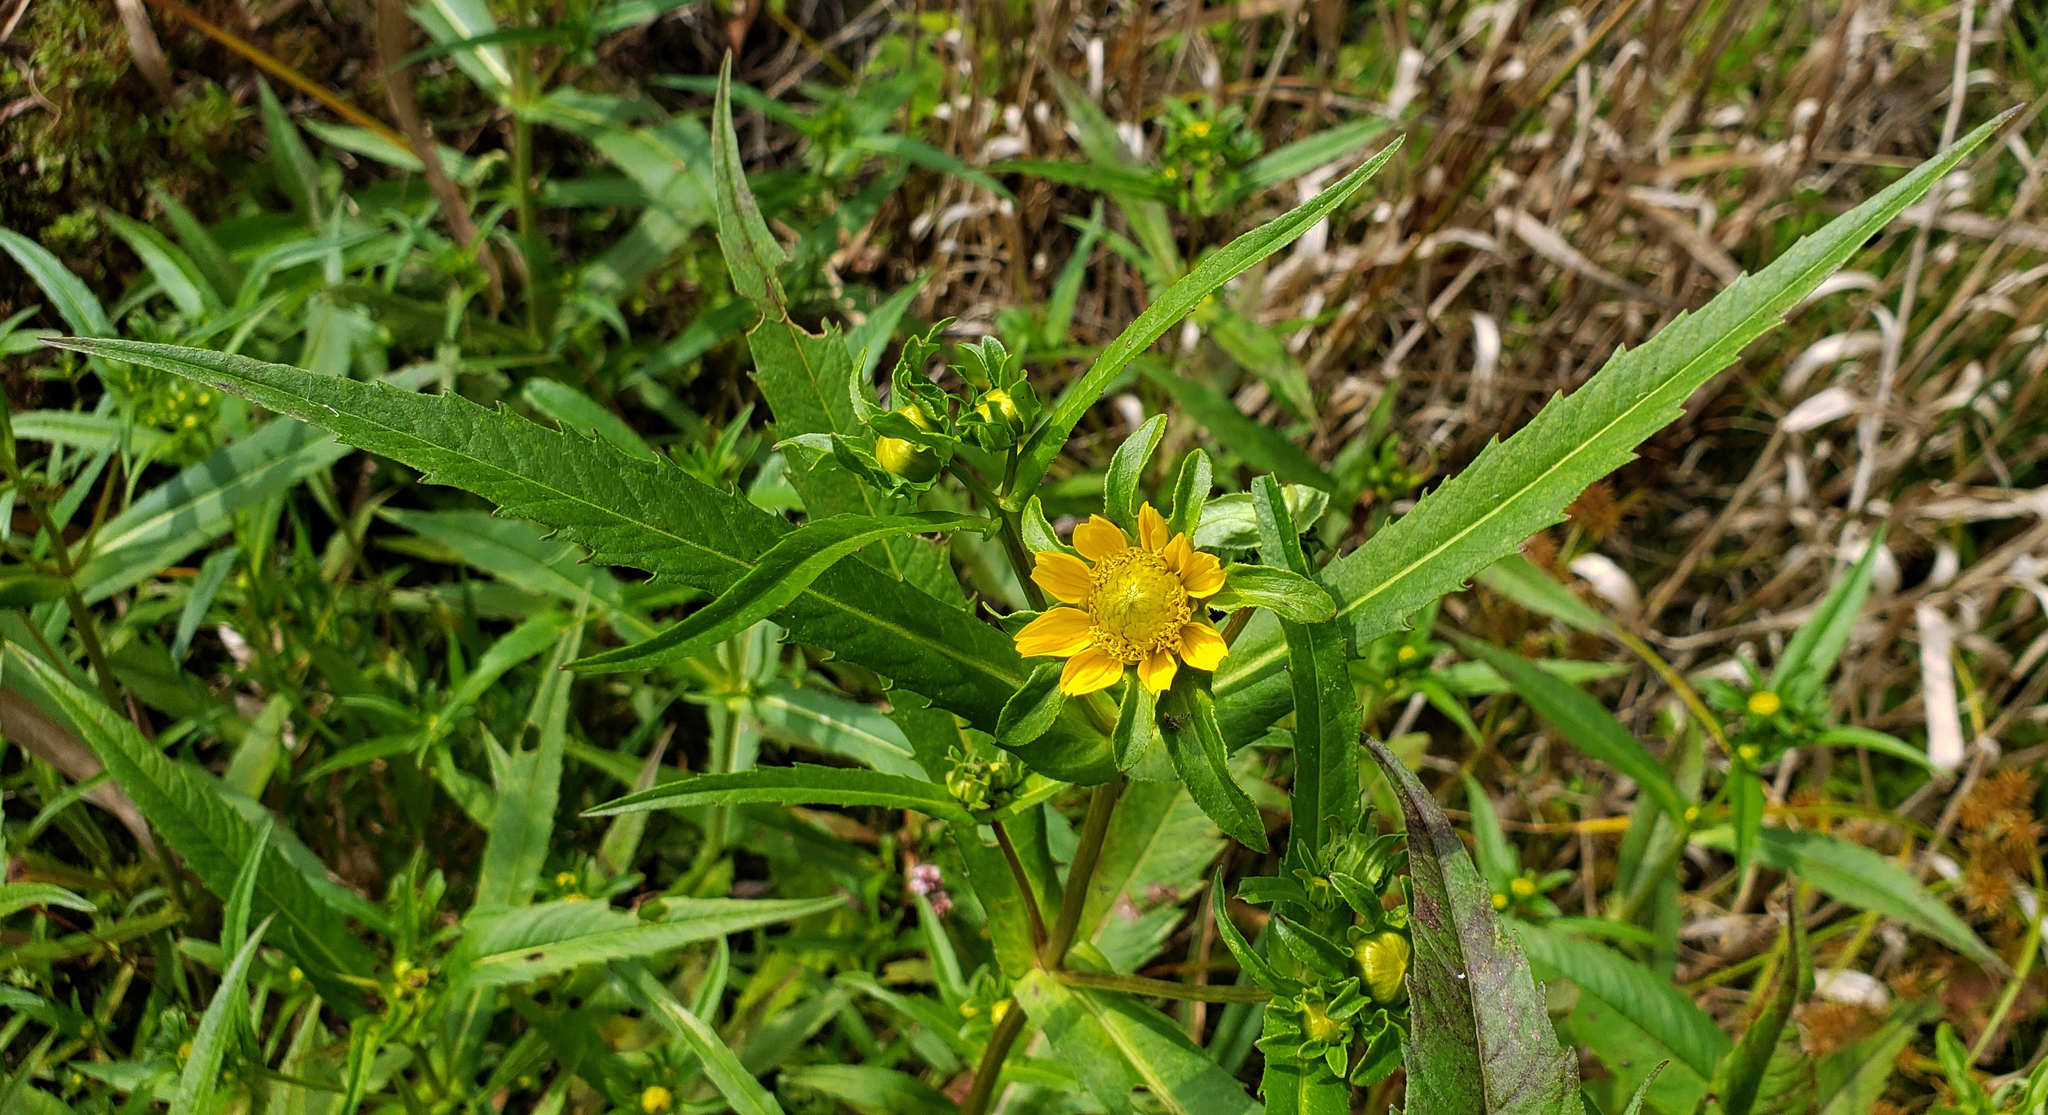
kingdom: Plantae
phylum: Tracheophyta
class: Magnoliopsida
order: Asterales
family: Asteraceae
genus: Bidens
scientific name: Bidens cernua
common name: Nodding bur-marigold
